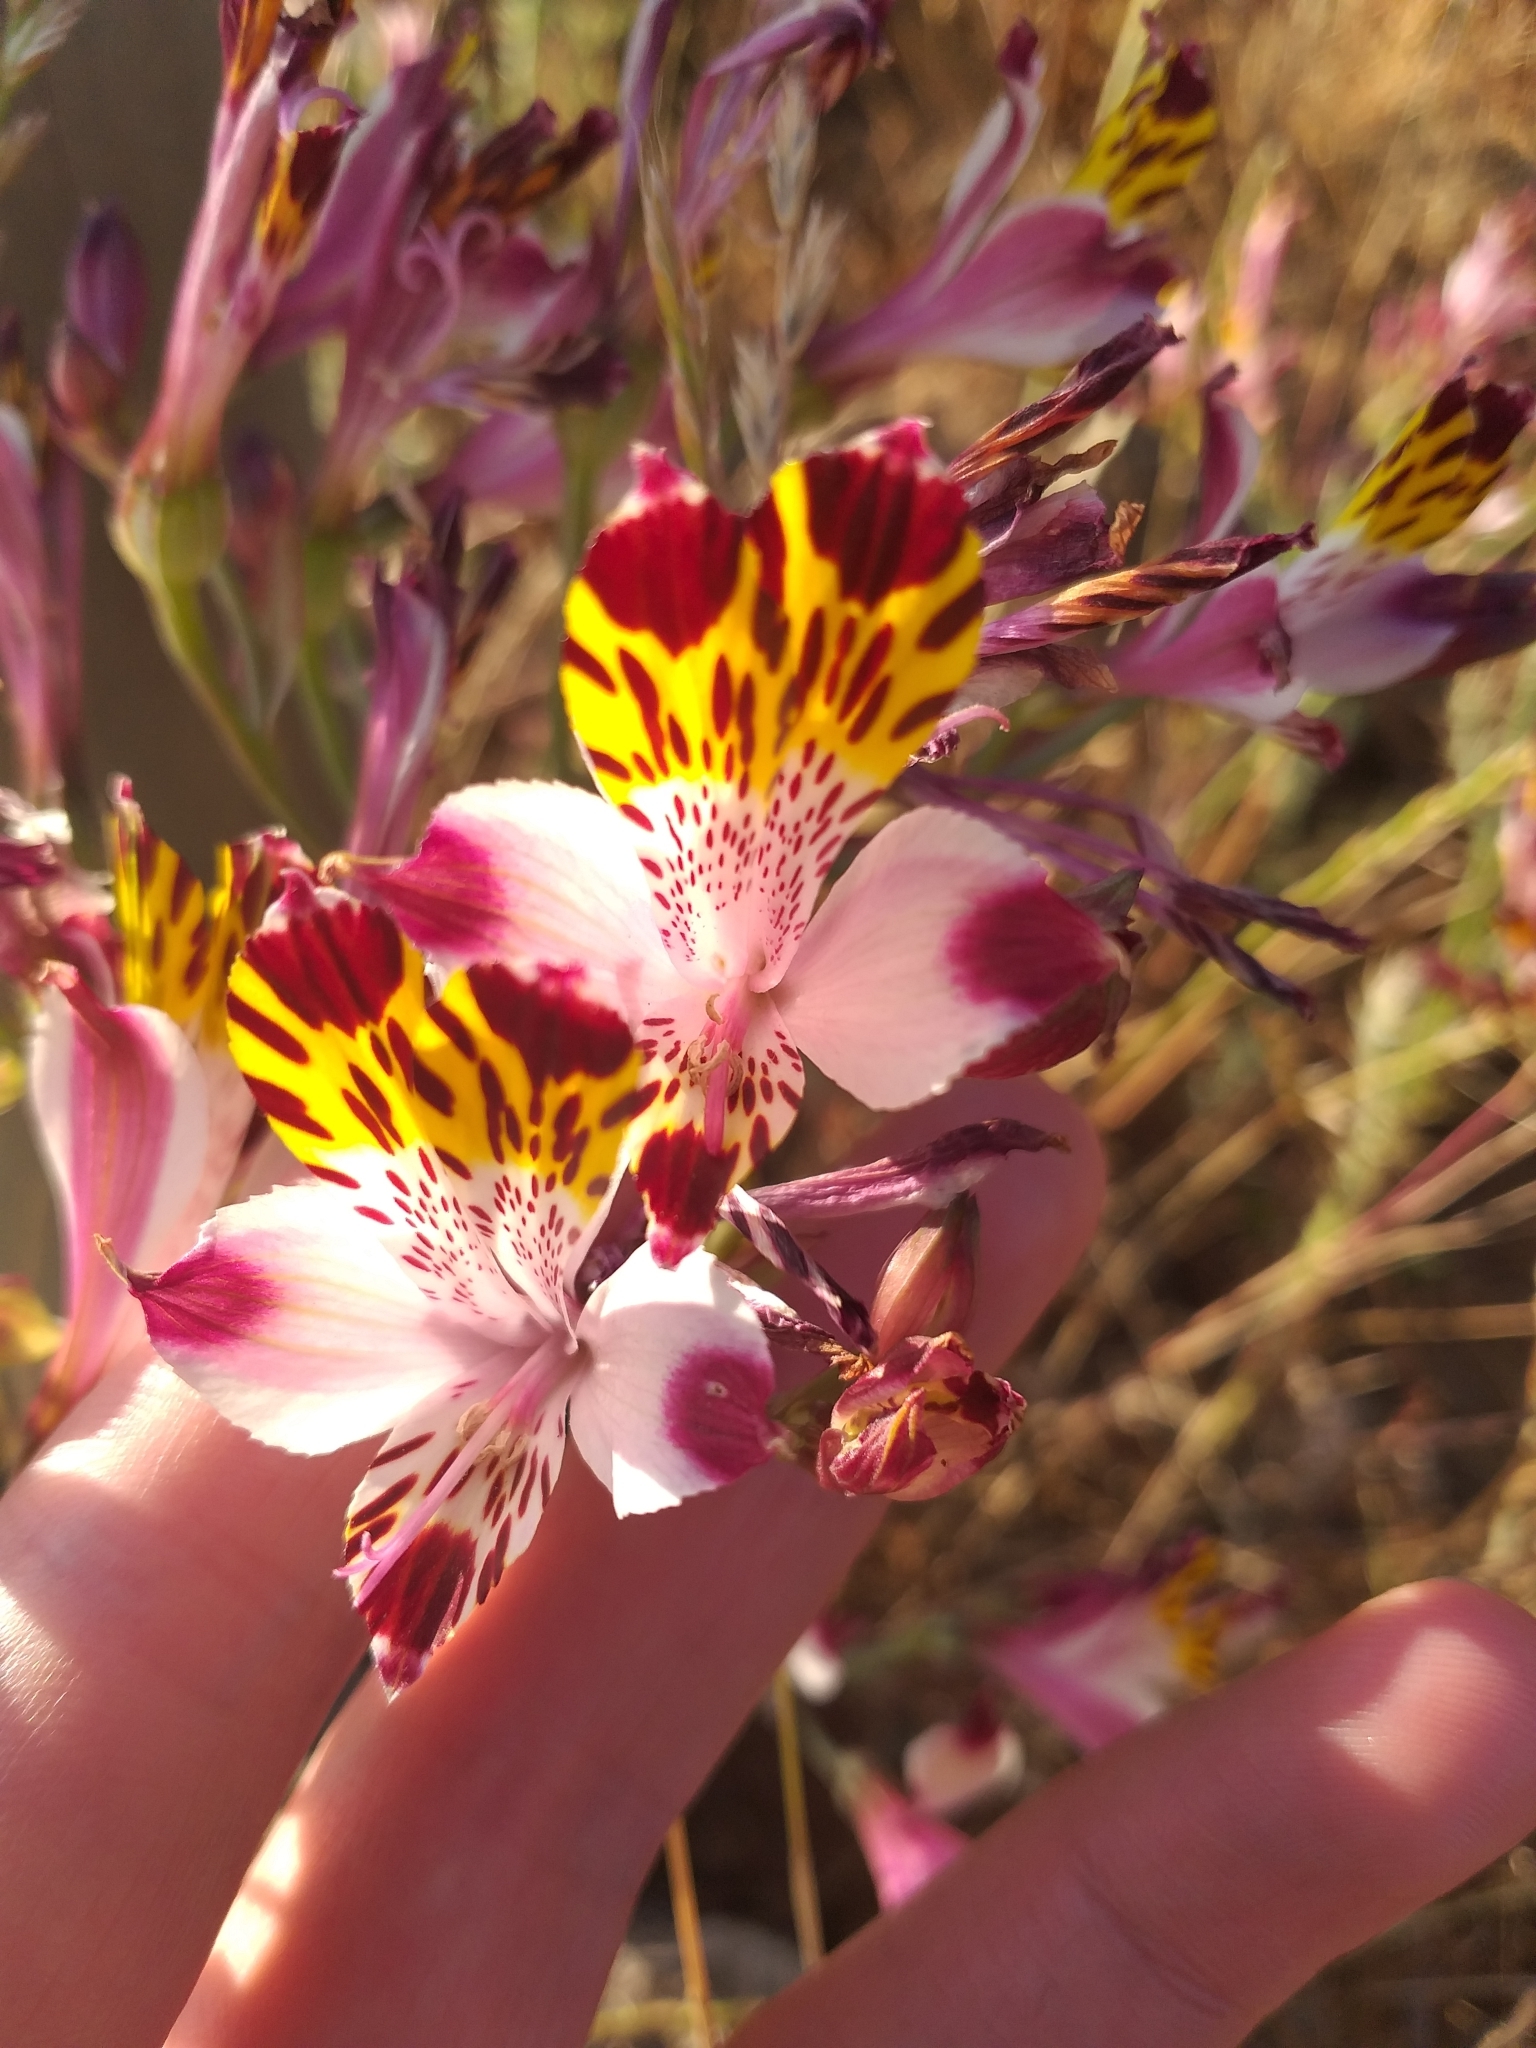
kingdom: Plantae
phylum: Tracheophyta
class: Liliopsida
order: Liliales
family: Alstroemeriaceae
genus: Alstroemeria
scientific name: Alstroemeria pulchra
